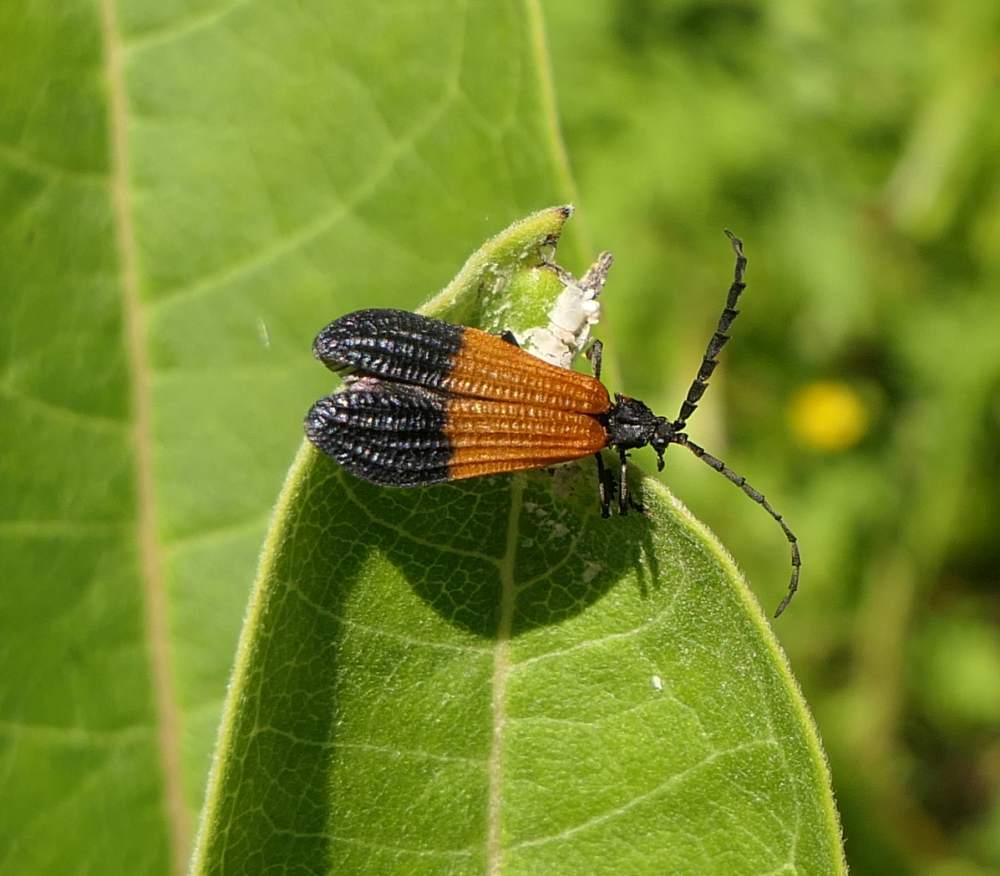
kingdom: Animalia
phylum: Arthropoda
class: Insecta
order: Coleoptera
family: Lycidae
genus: Calopteron
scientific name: Calopteron terminale
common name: End band net-winged beetle
